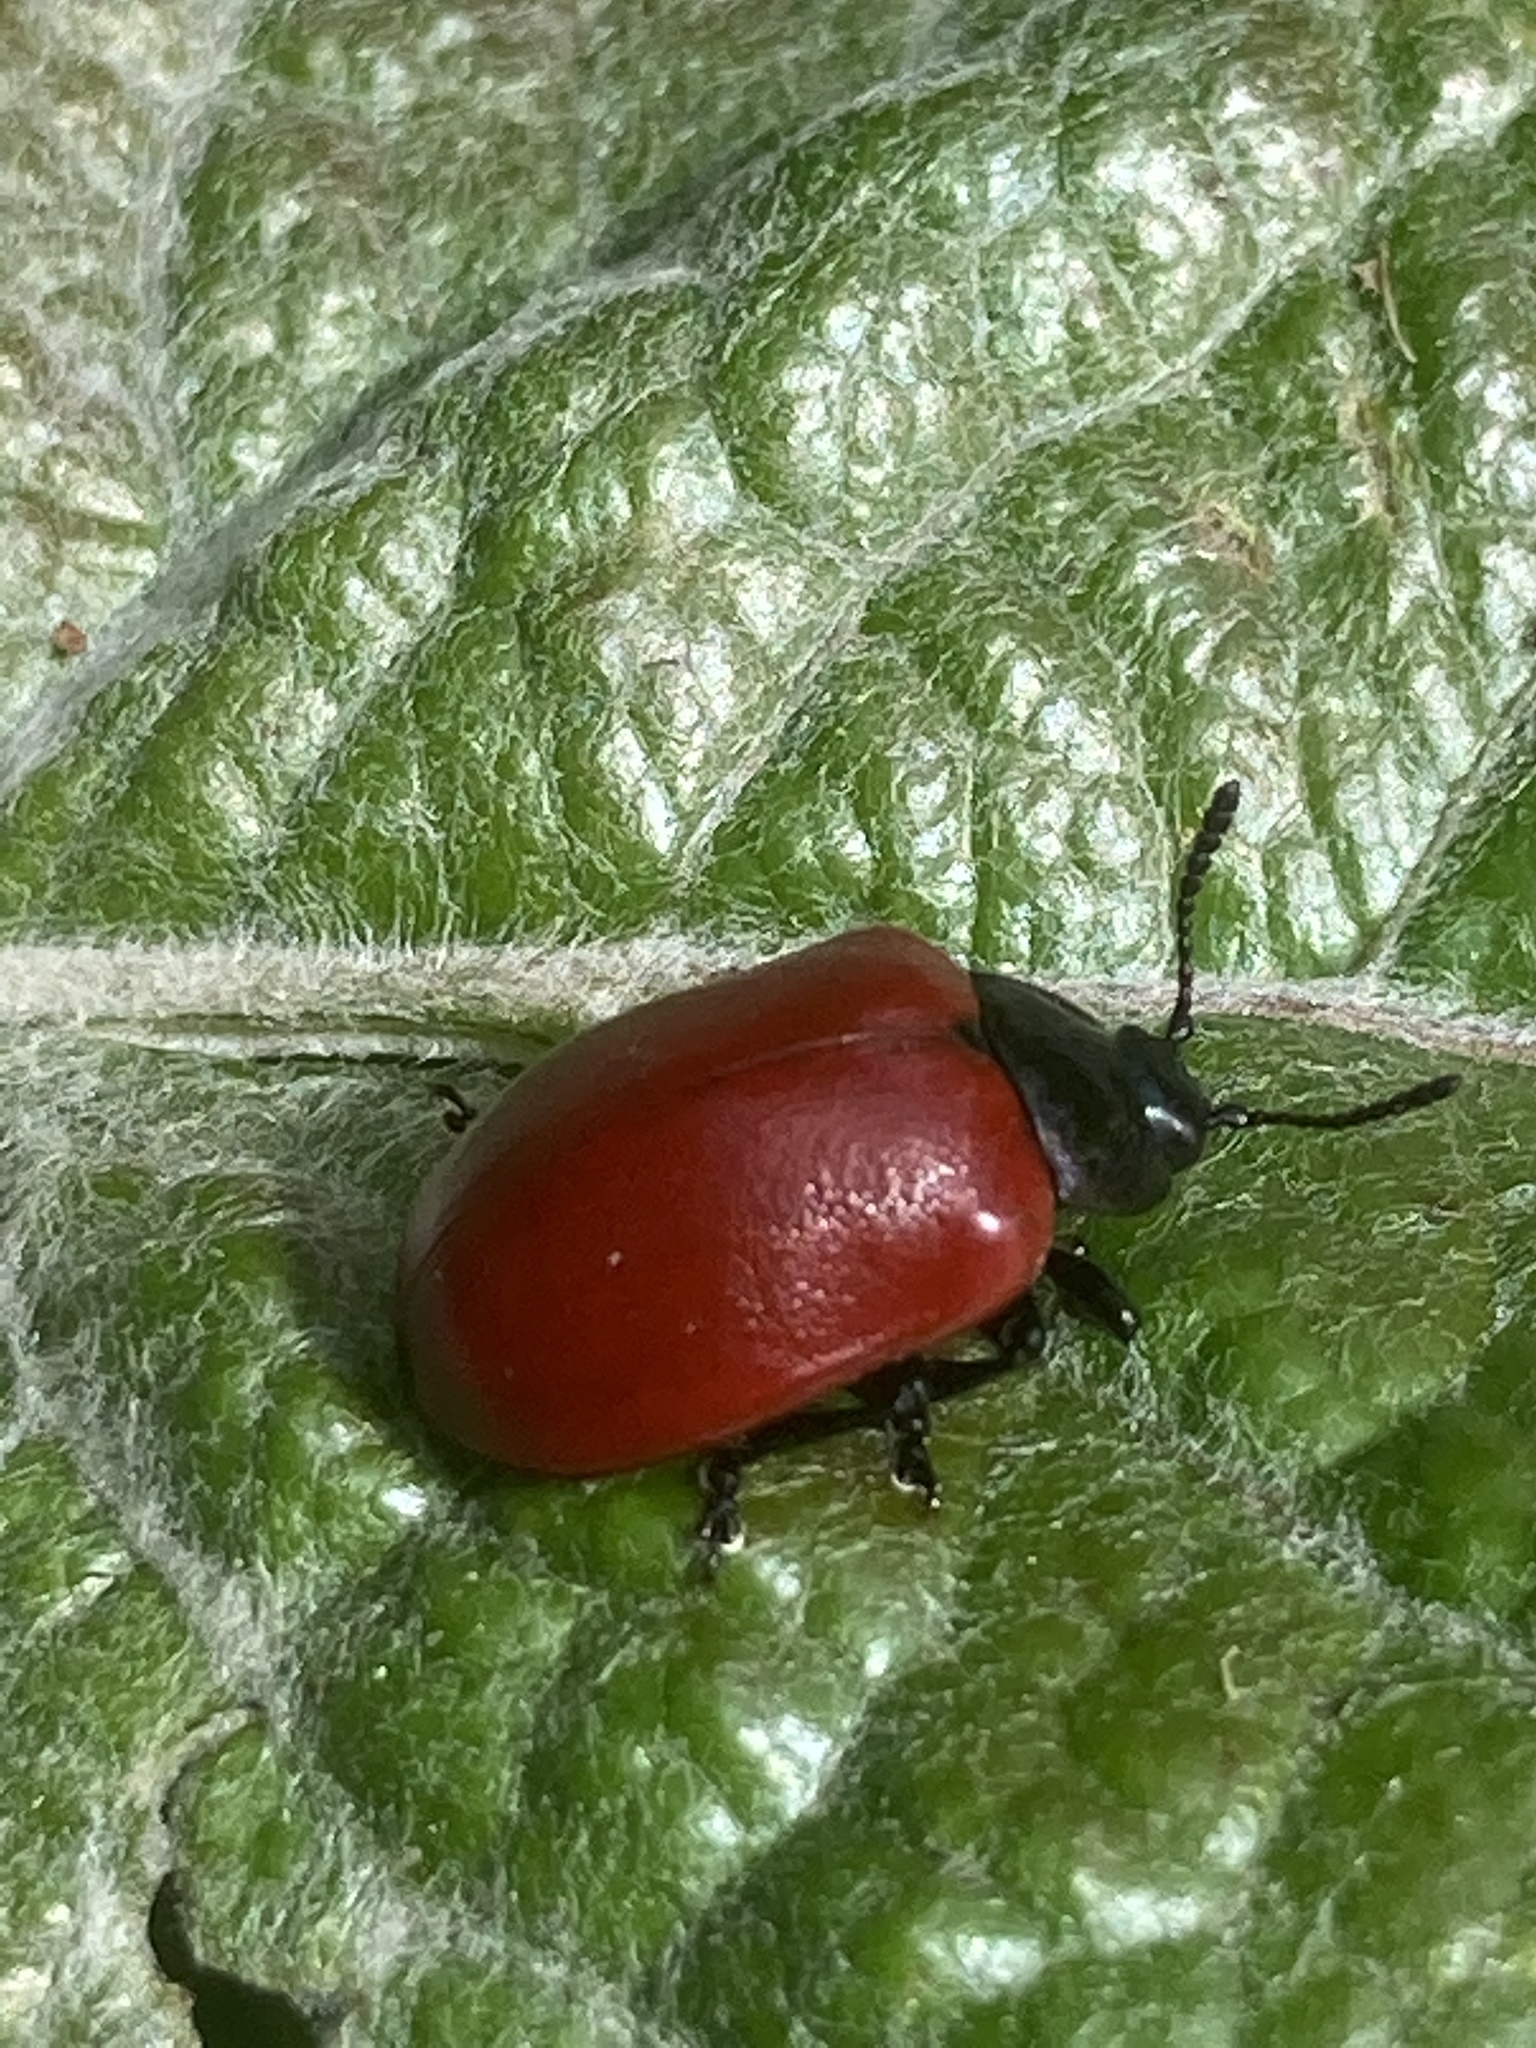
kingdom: Animalia
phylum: Arthropoda
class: Insecta
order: Coleoptera
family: Chrysomelidae
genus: Chrysomela
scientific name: Chrysomela populi
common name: Red poplar leaf beetle
